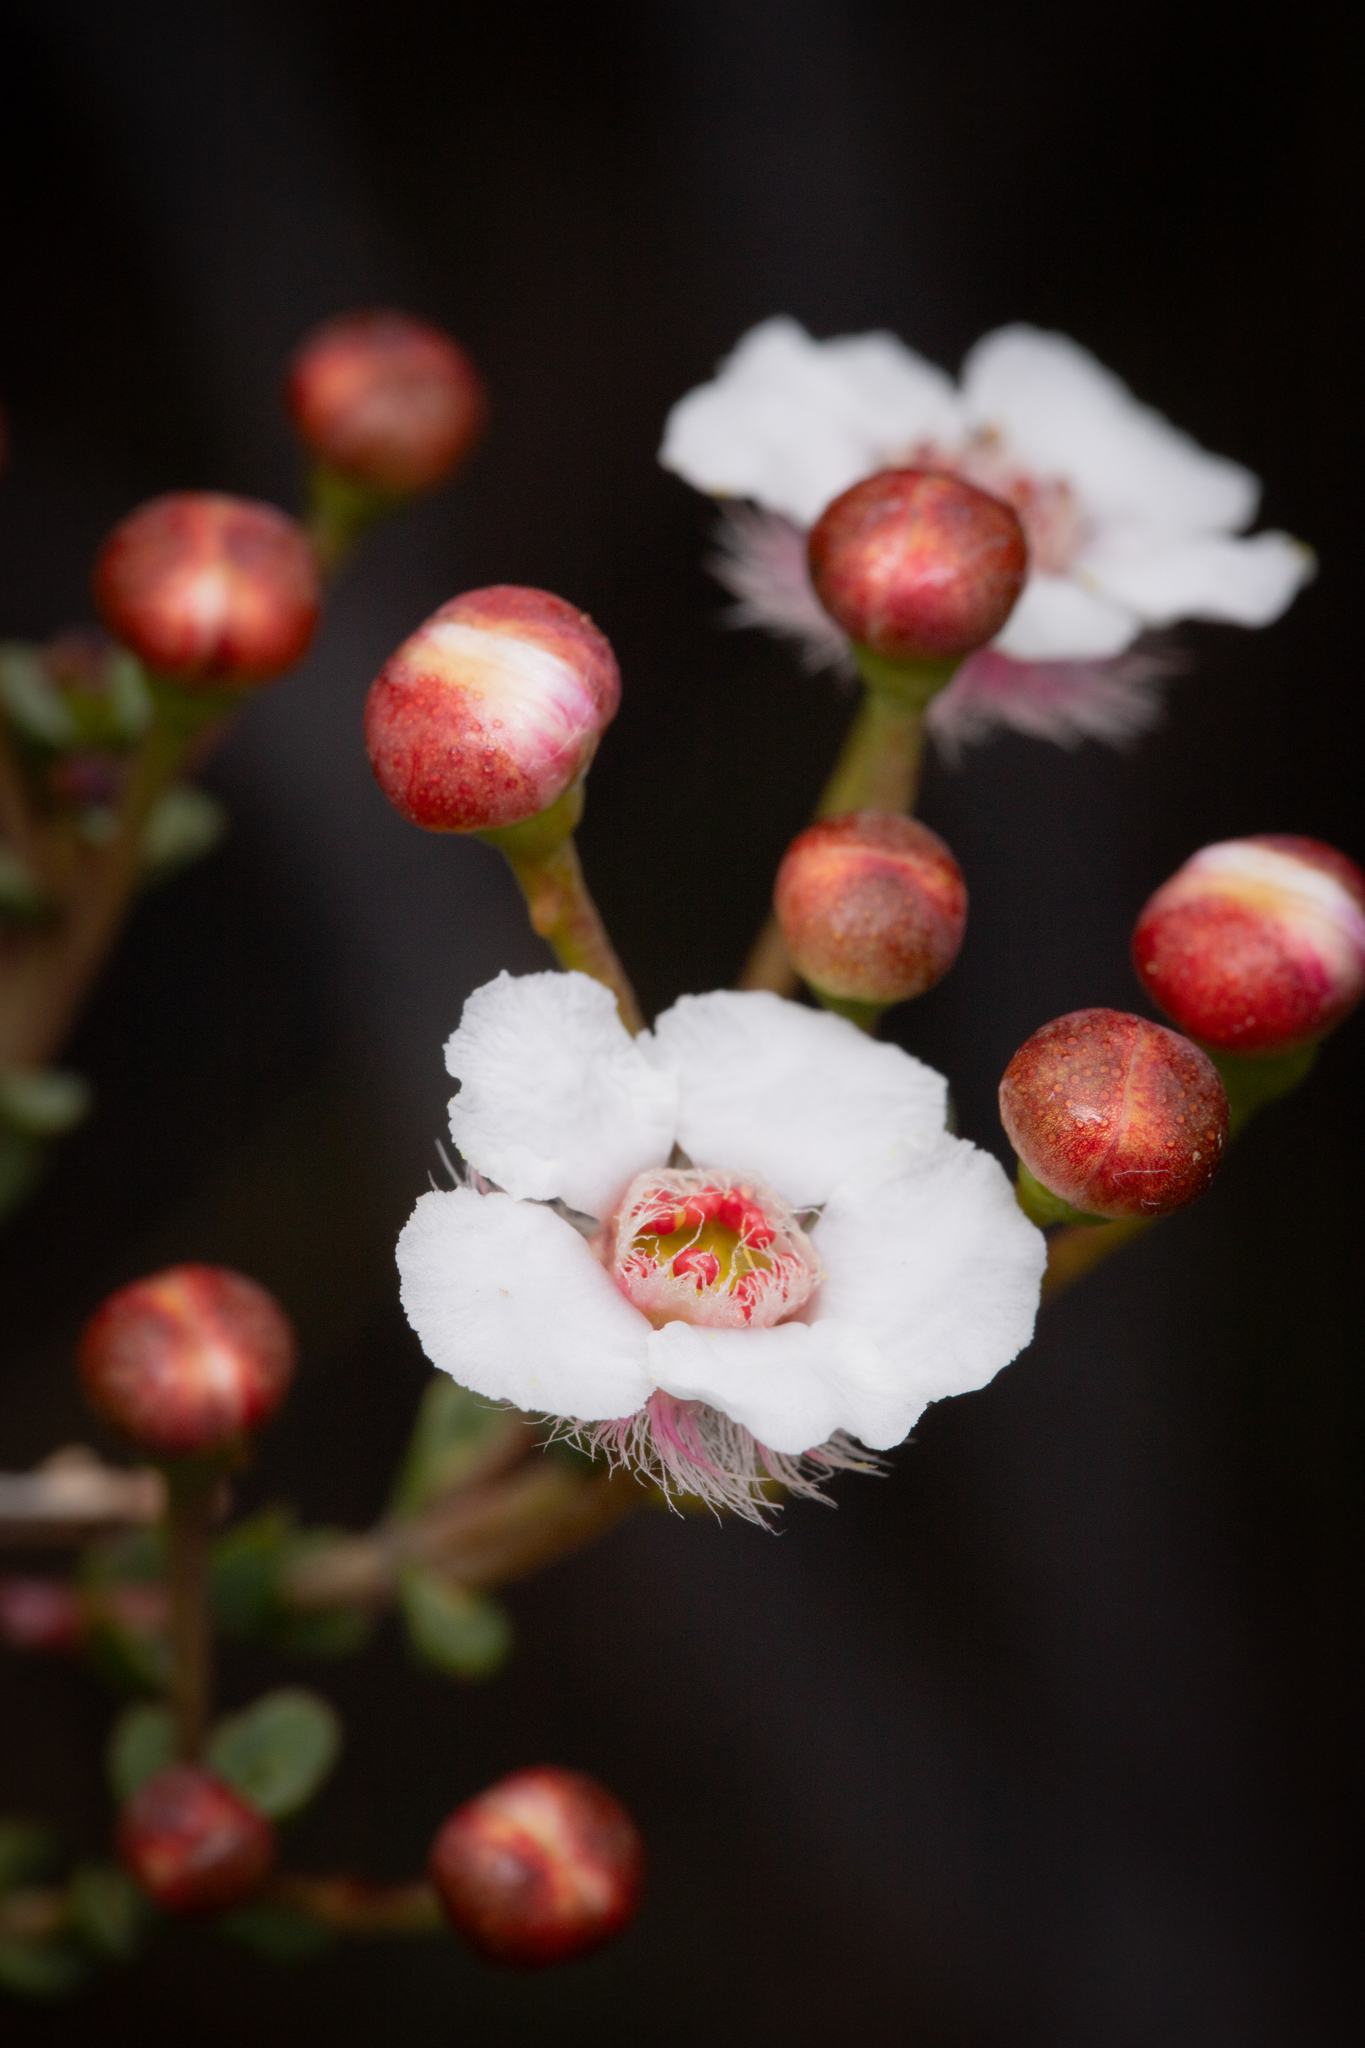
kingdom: Plantae
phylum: Tracheophyta
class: Magnoliopsida
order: Myrtales
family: Myrtaceae
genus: Verticordia
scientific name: Verticordia habrantha
